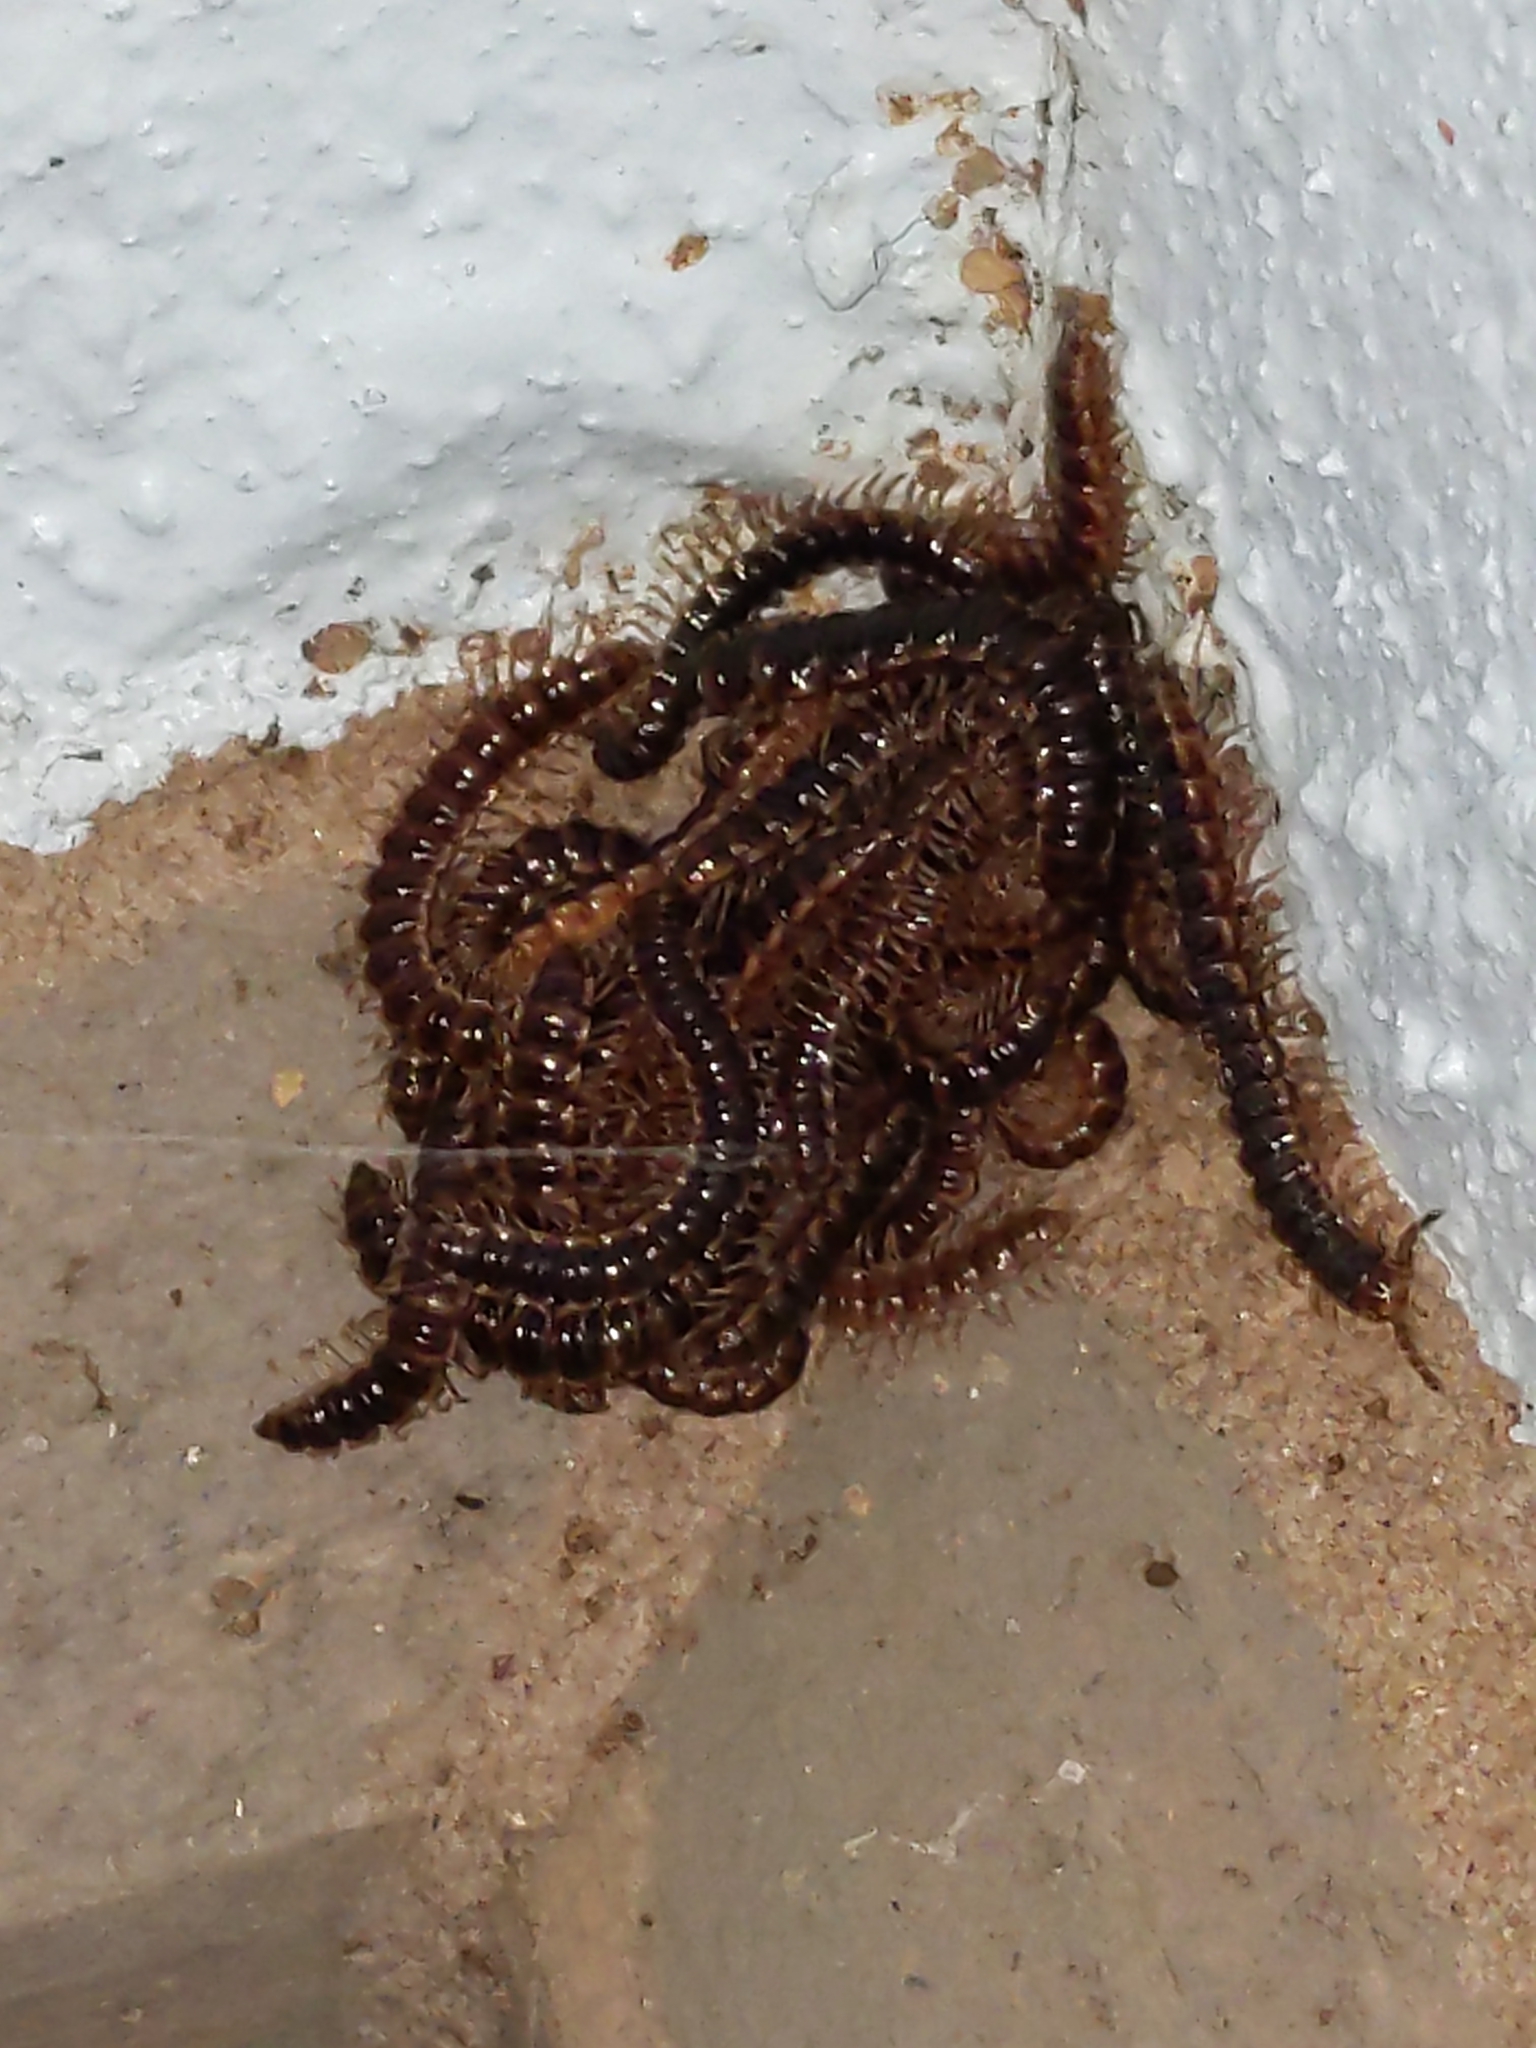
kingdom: Animalia
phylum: Arthropoda
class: Diplopoda
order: Polydesmida
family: Paradoxosomatidae
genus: Oxidus
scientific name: Oxidus gracilis
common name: Greenhouse millipede
